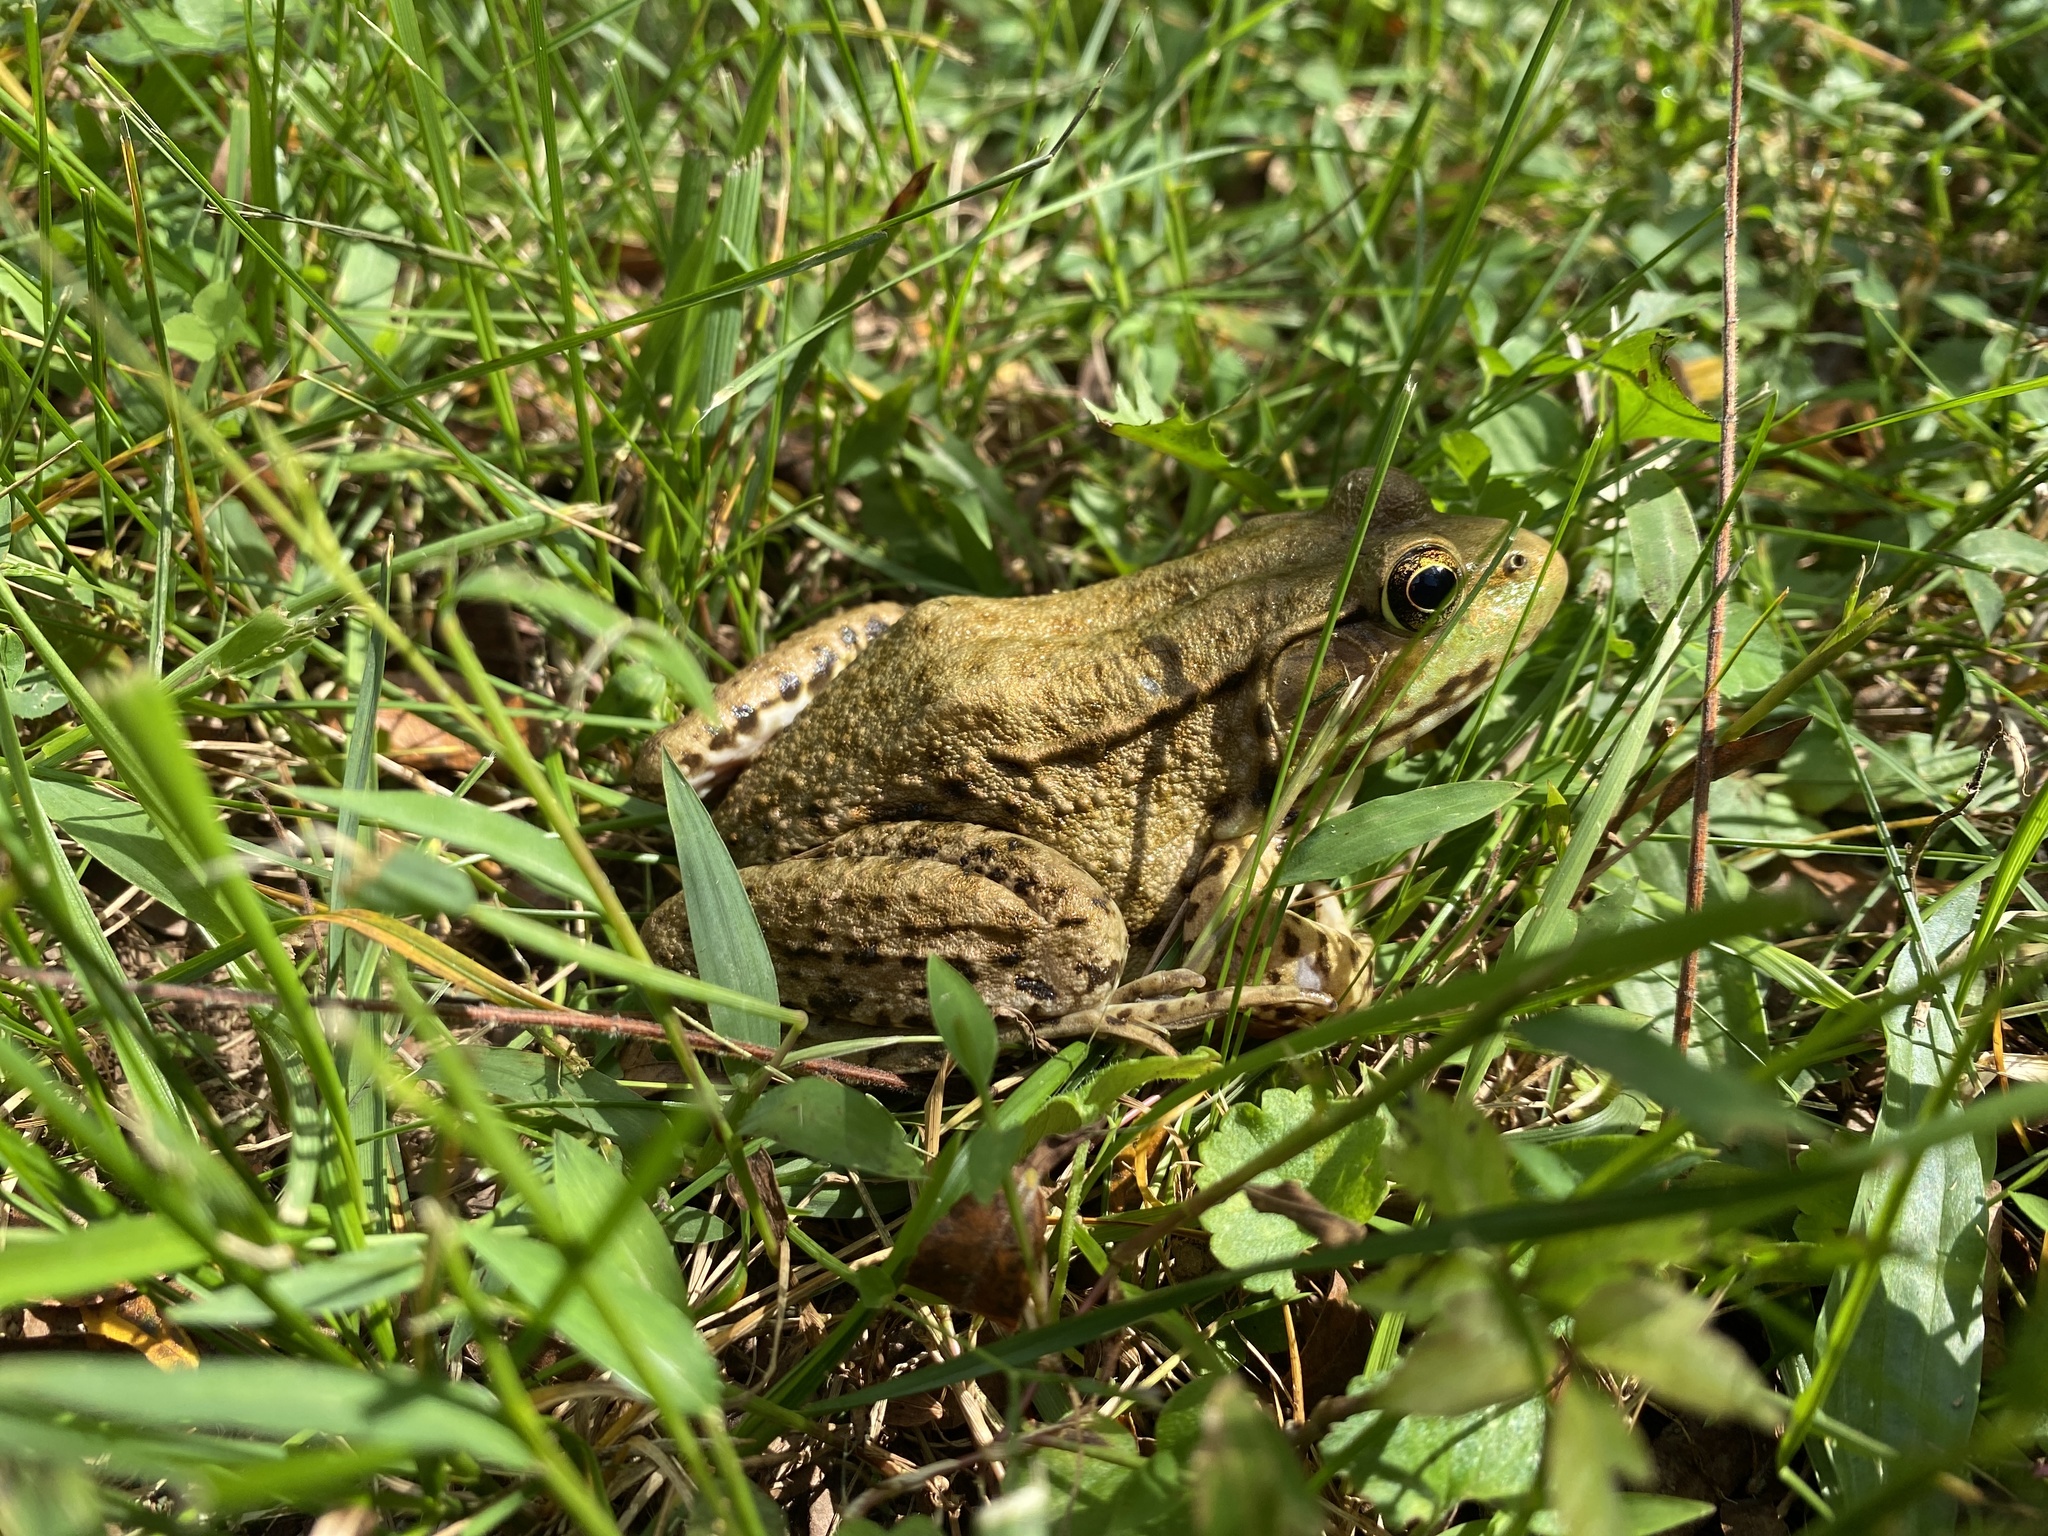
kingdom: Animalia
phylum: Chordata
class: Amphibia
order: Anura
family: Ranidae
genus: Lithobates
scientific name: Lithobates clamitans
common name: Green frog
